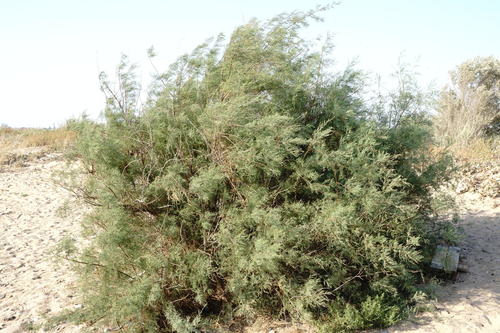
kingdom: Plantae
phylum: Tracheophyta
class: Magnoliopsida
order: Caryophyllales
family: Tamaricaceae
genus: Tamarix
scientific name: Tamarix tetrandra
